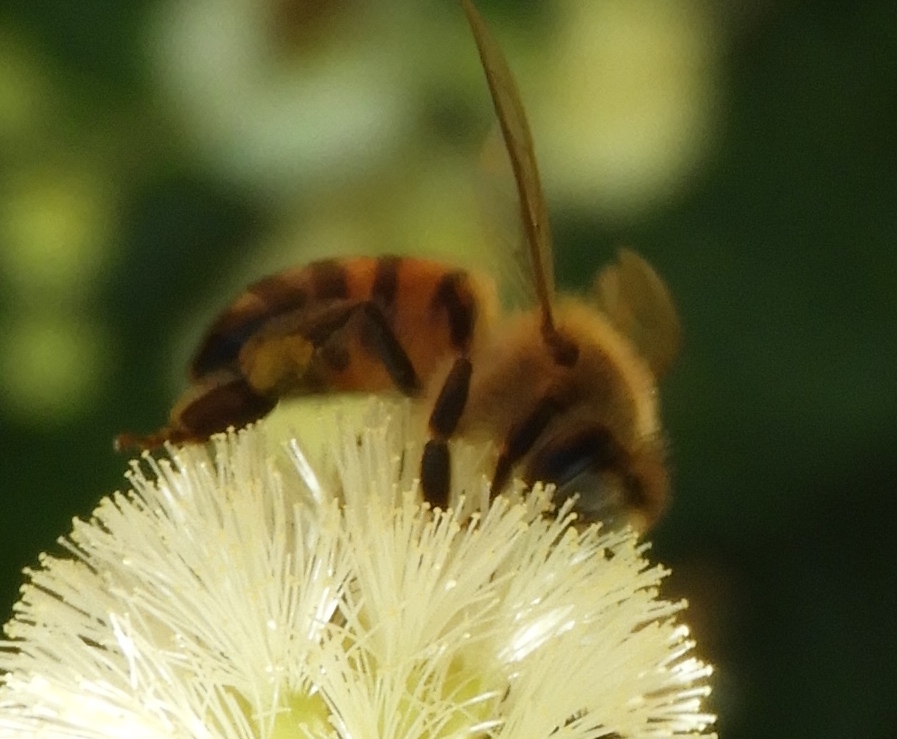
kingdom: Animalia
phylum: Arthropoda
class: Insecta
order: Hymenoptera
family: Apidae
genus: Apis
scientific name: Apis mellifera
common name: Honey bee
